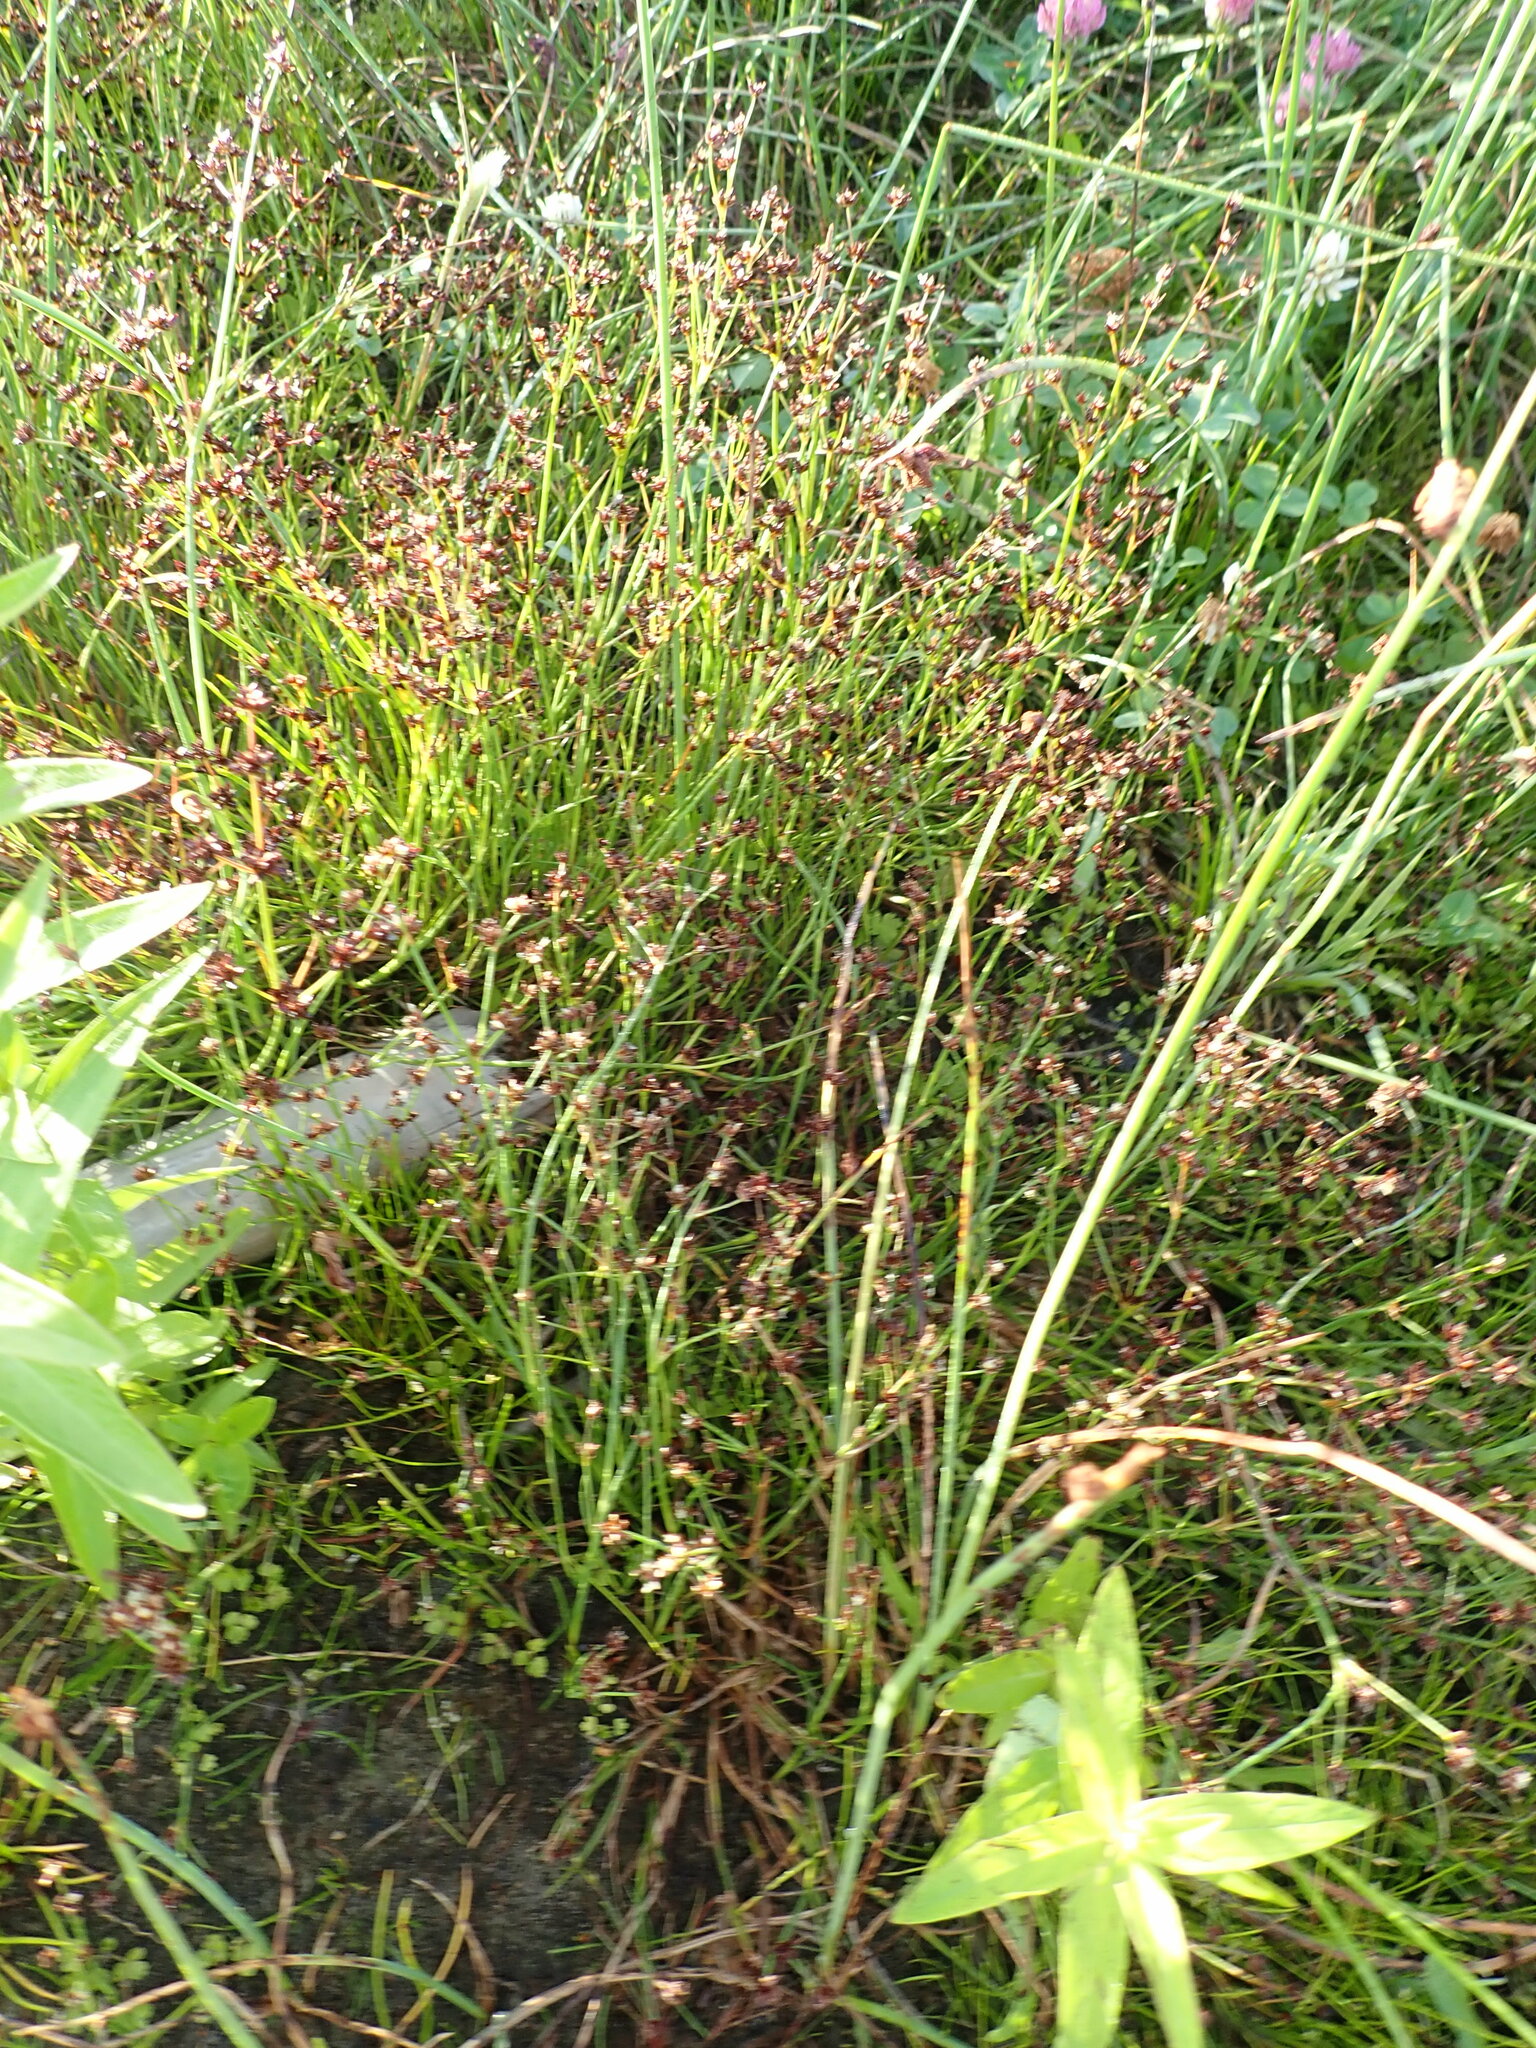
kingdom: Plantae
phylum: Tracheophyta
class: Liliopsida
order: Poales
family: Juncaceae
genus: Juncus
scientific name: Juncus articulatus
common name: Jointed rush
